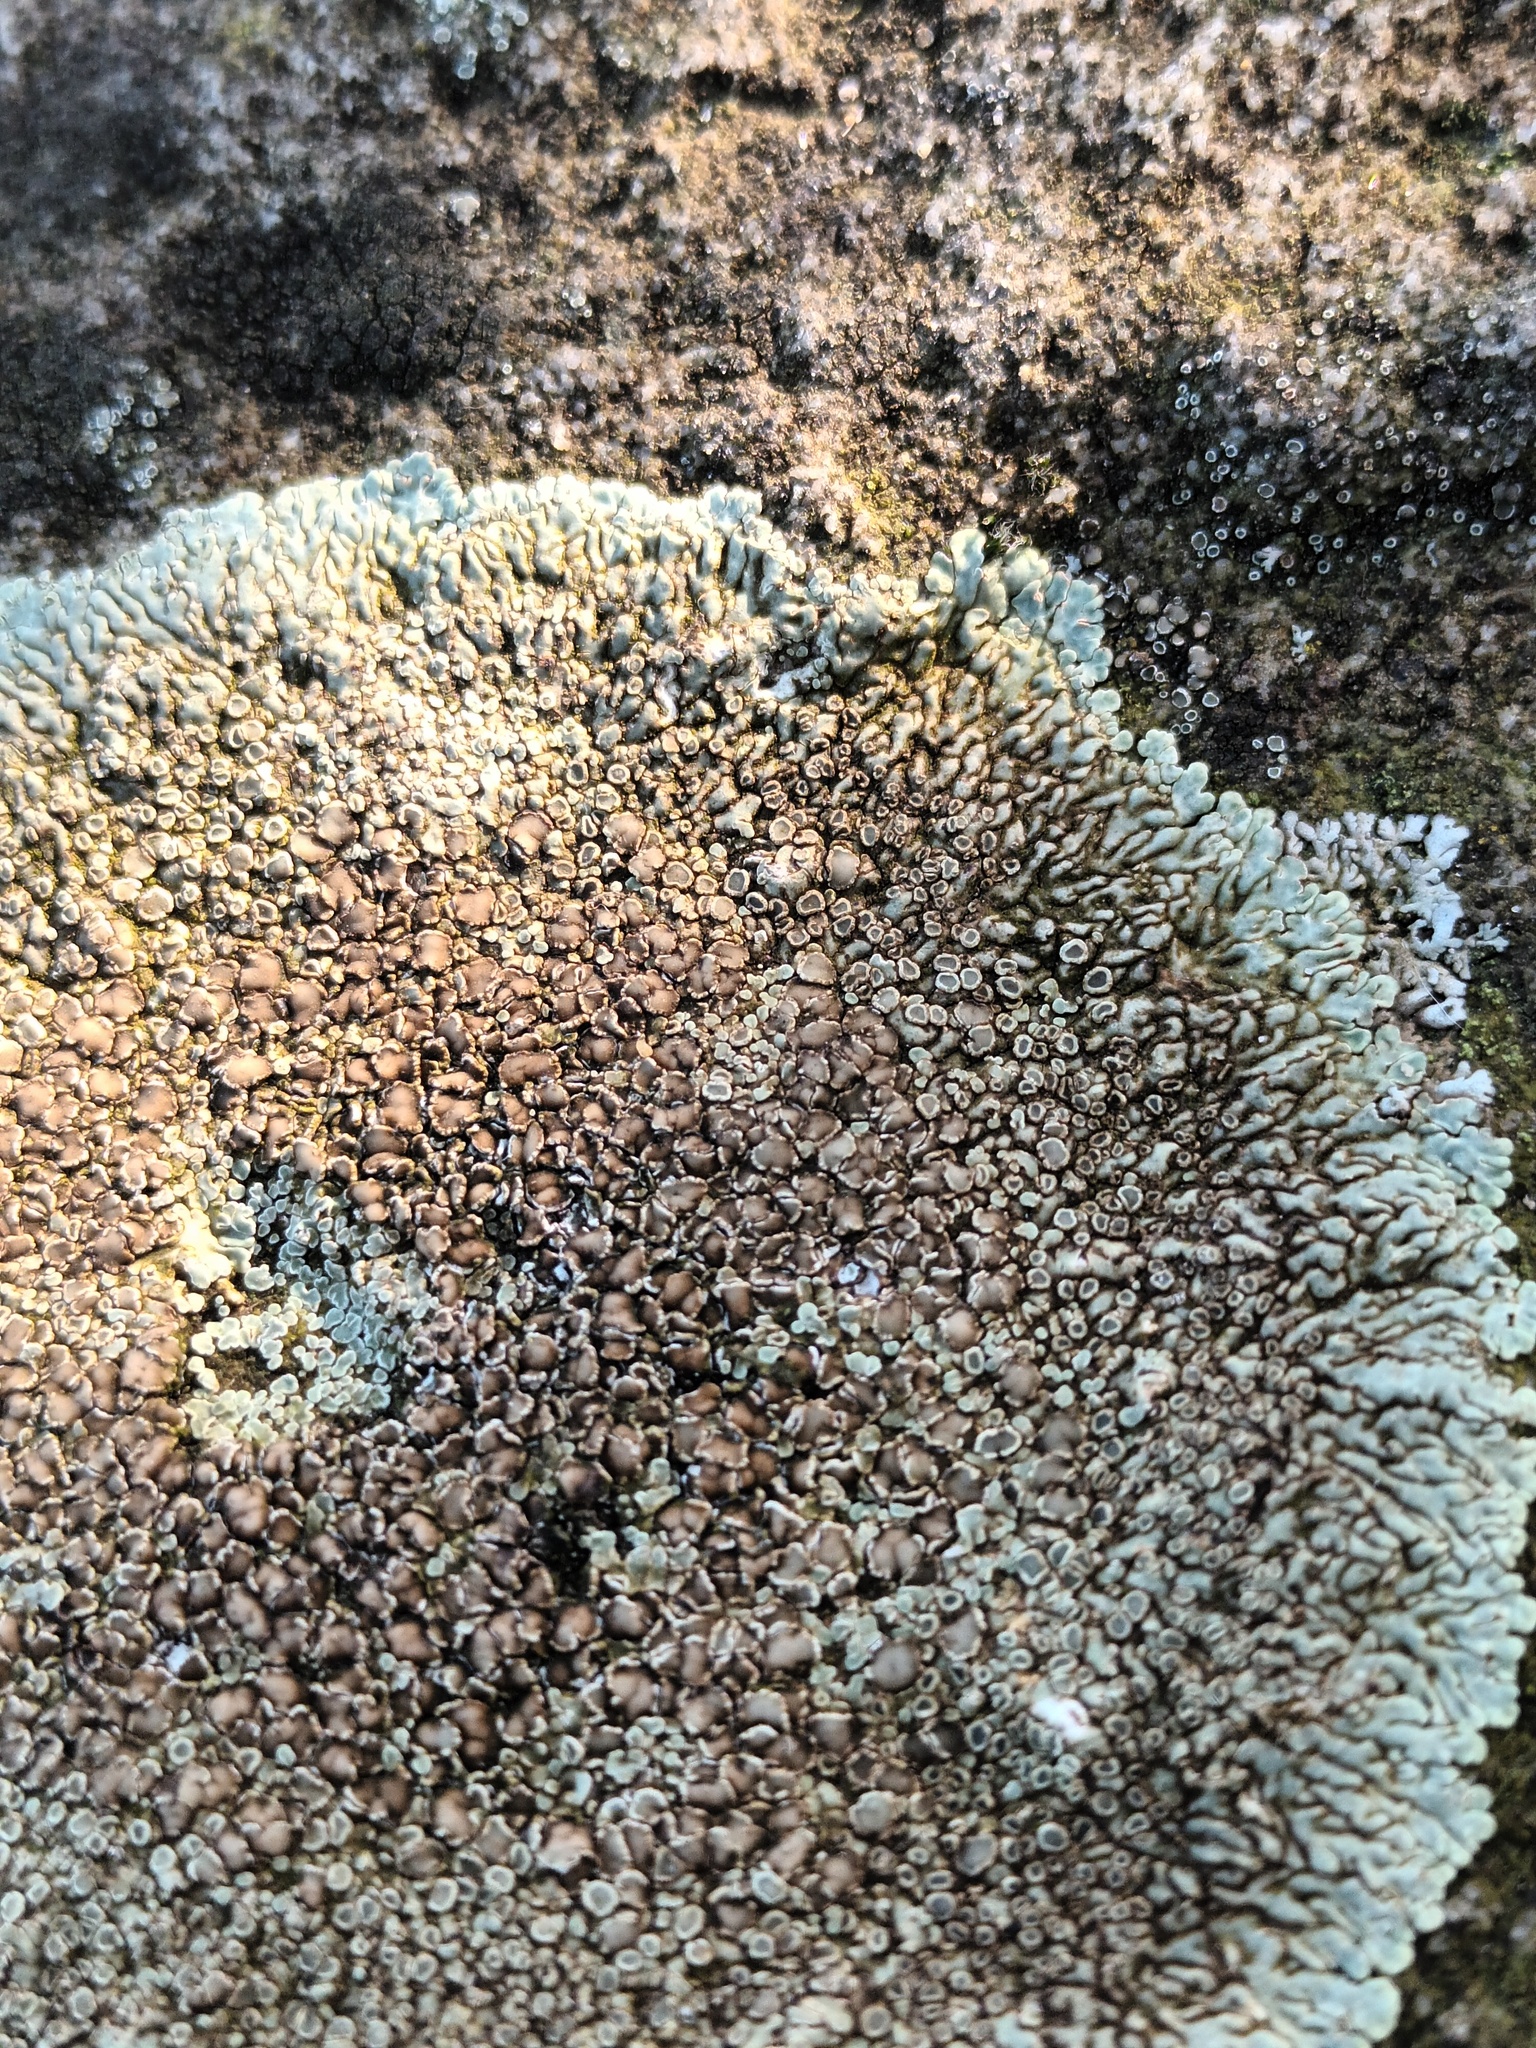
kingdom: Fungi
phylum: Ascomycota
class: Lecanoromycetes
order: Lecanorales
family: Lecanoraceae
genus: Protoparmeliopsis
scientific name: Protoparmeliopsis muralis
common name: Stonewall rim lichen
